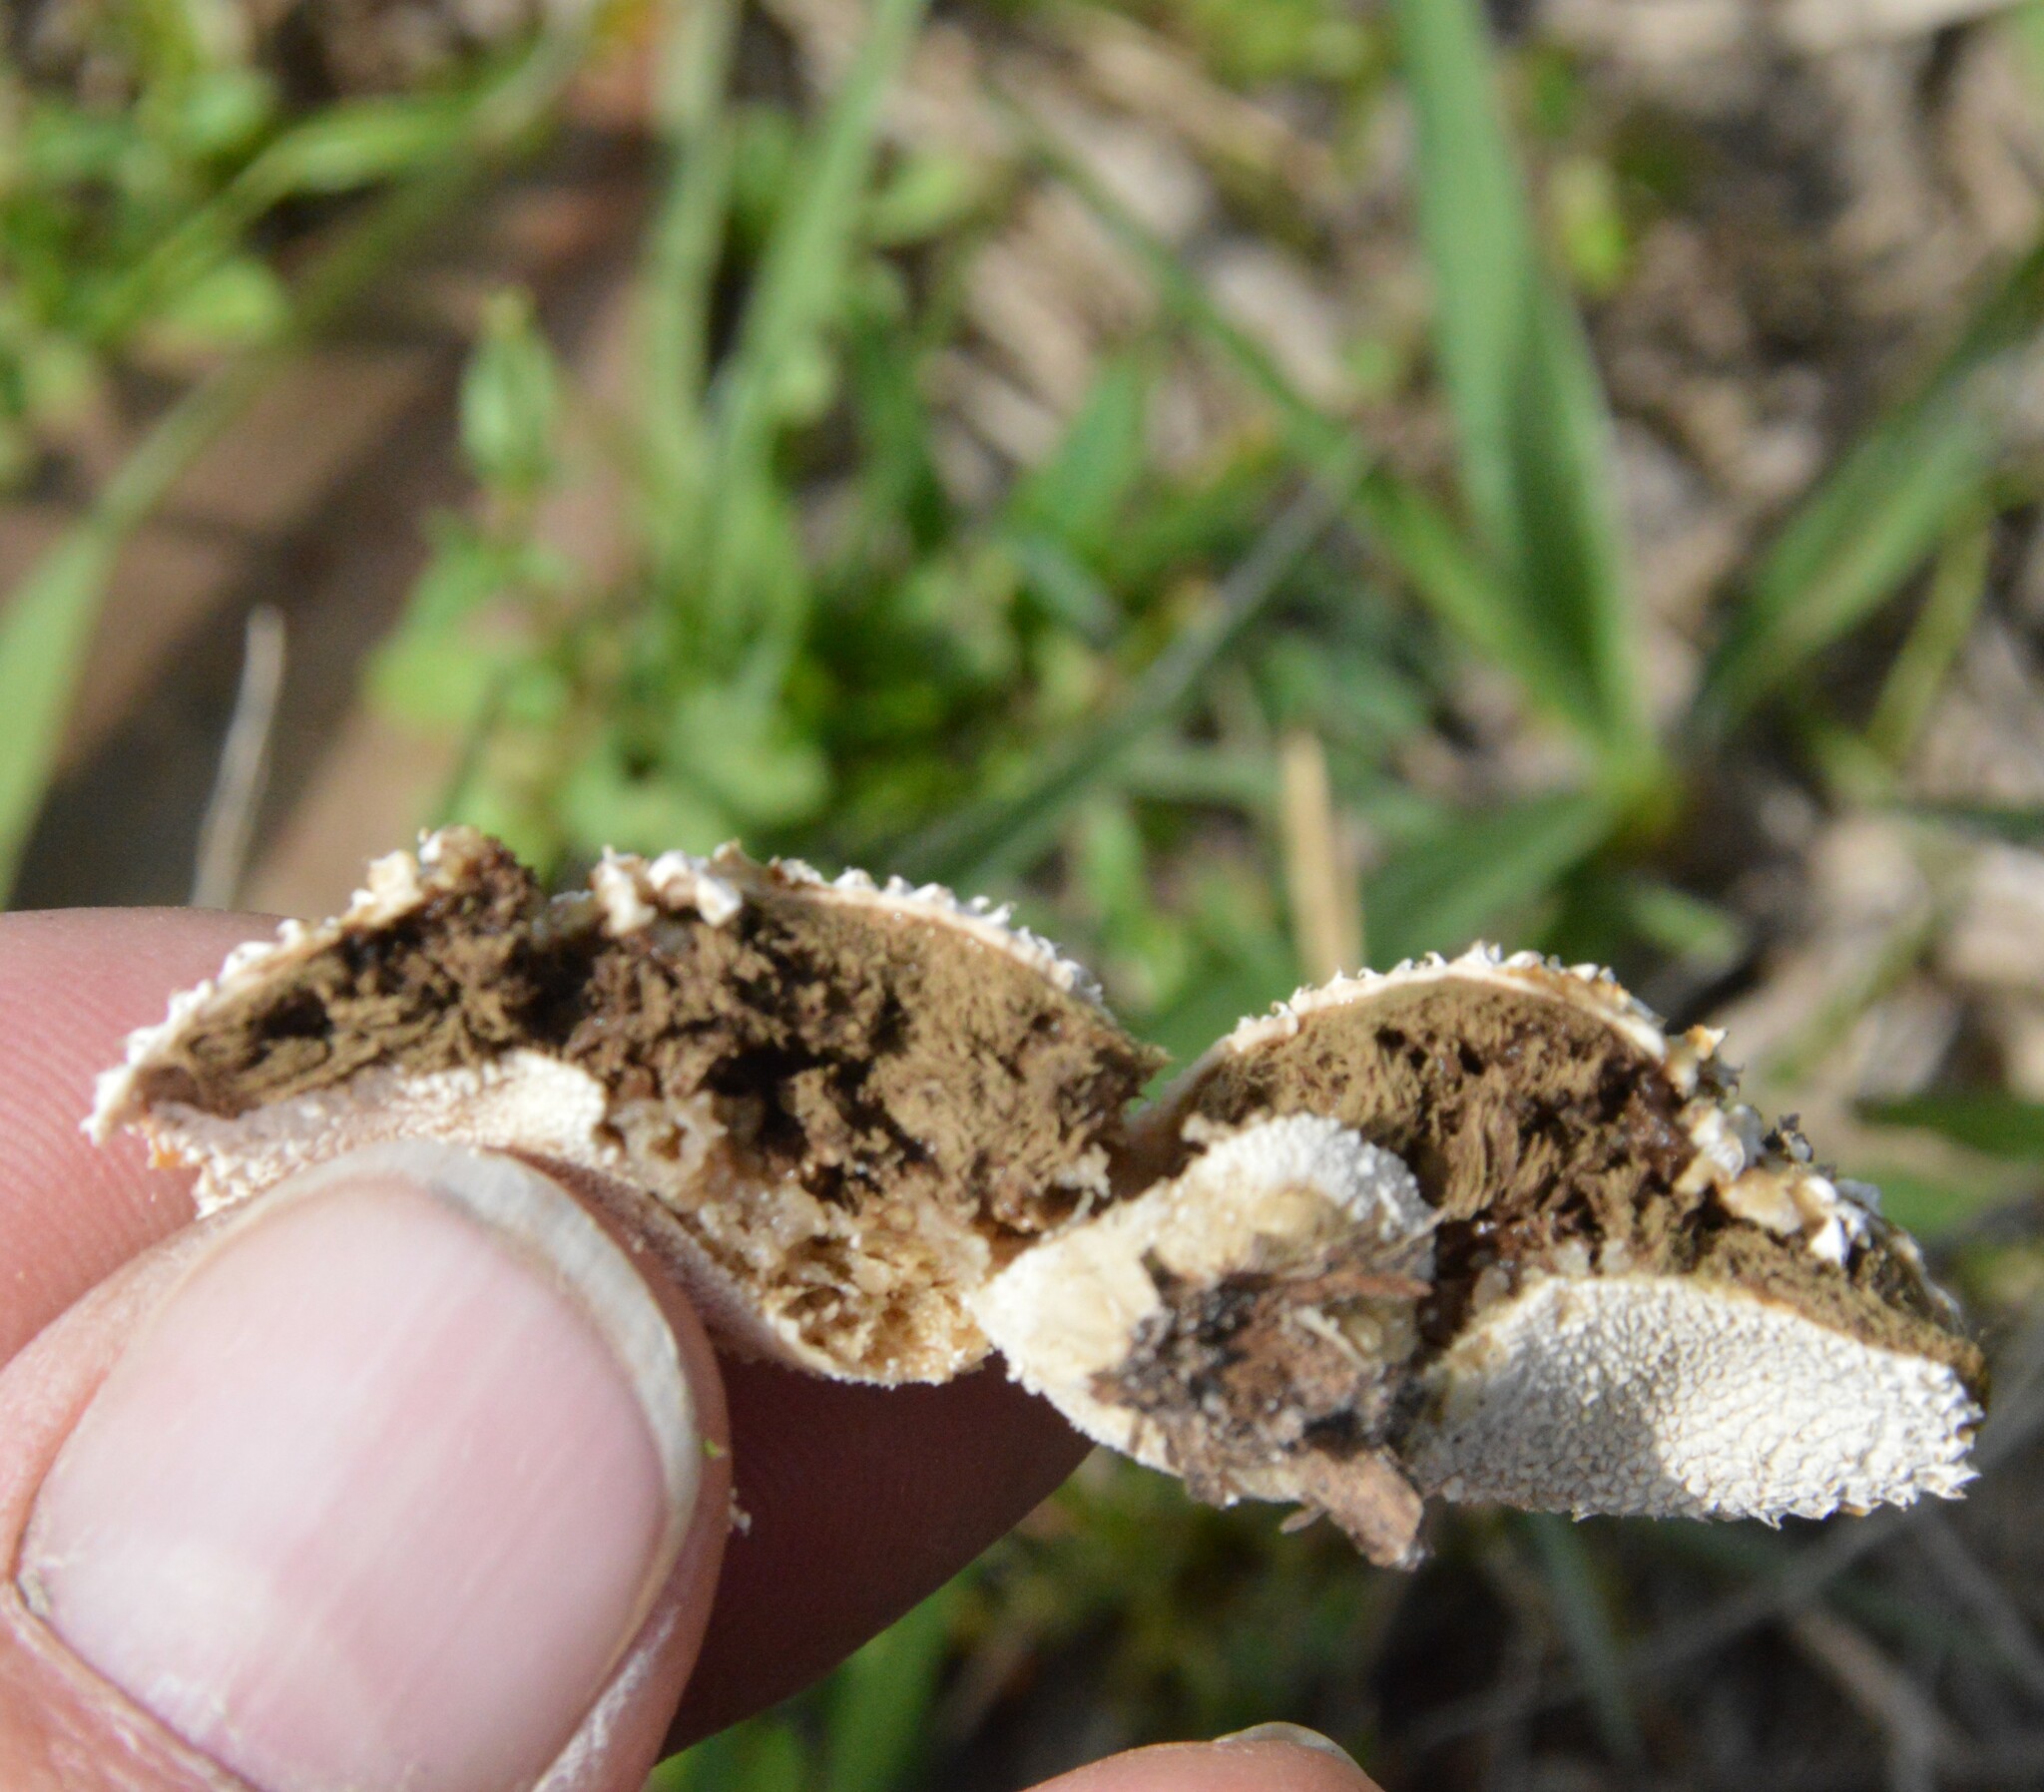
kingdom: Fungi
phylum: Basidiomycota
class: Agaricomycetes
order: Agaricales
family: Agaricaceae
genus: Lycoperdon
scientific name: Lycoperdon marginatum
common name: Peeling puffball
